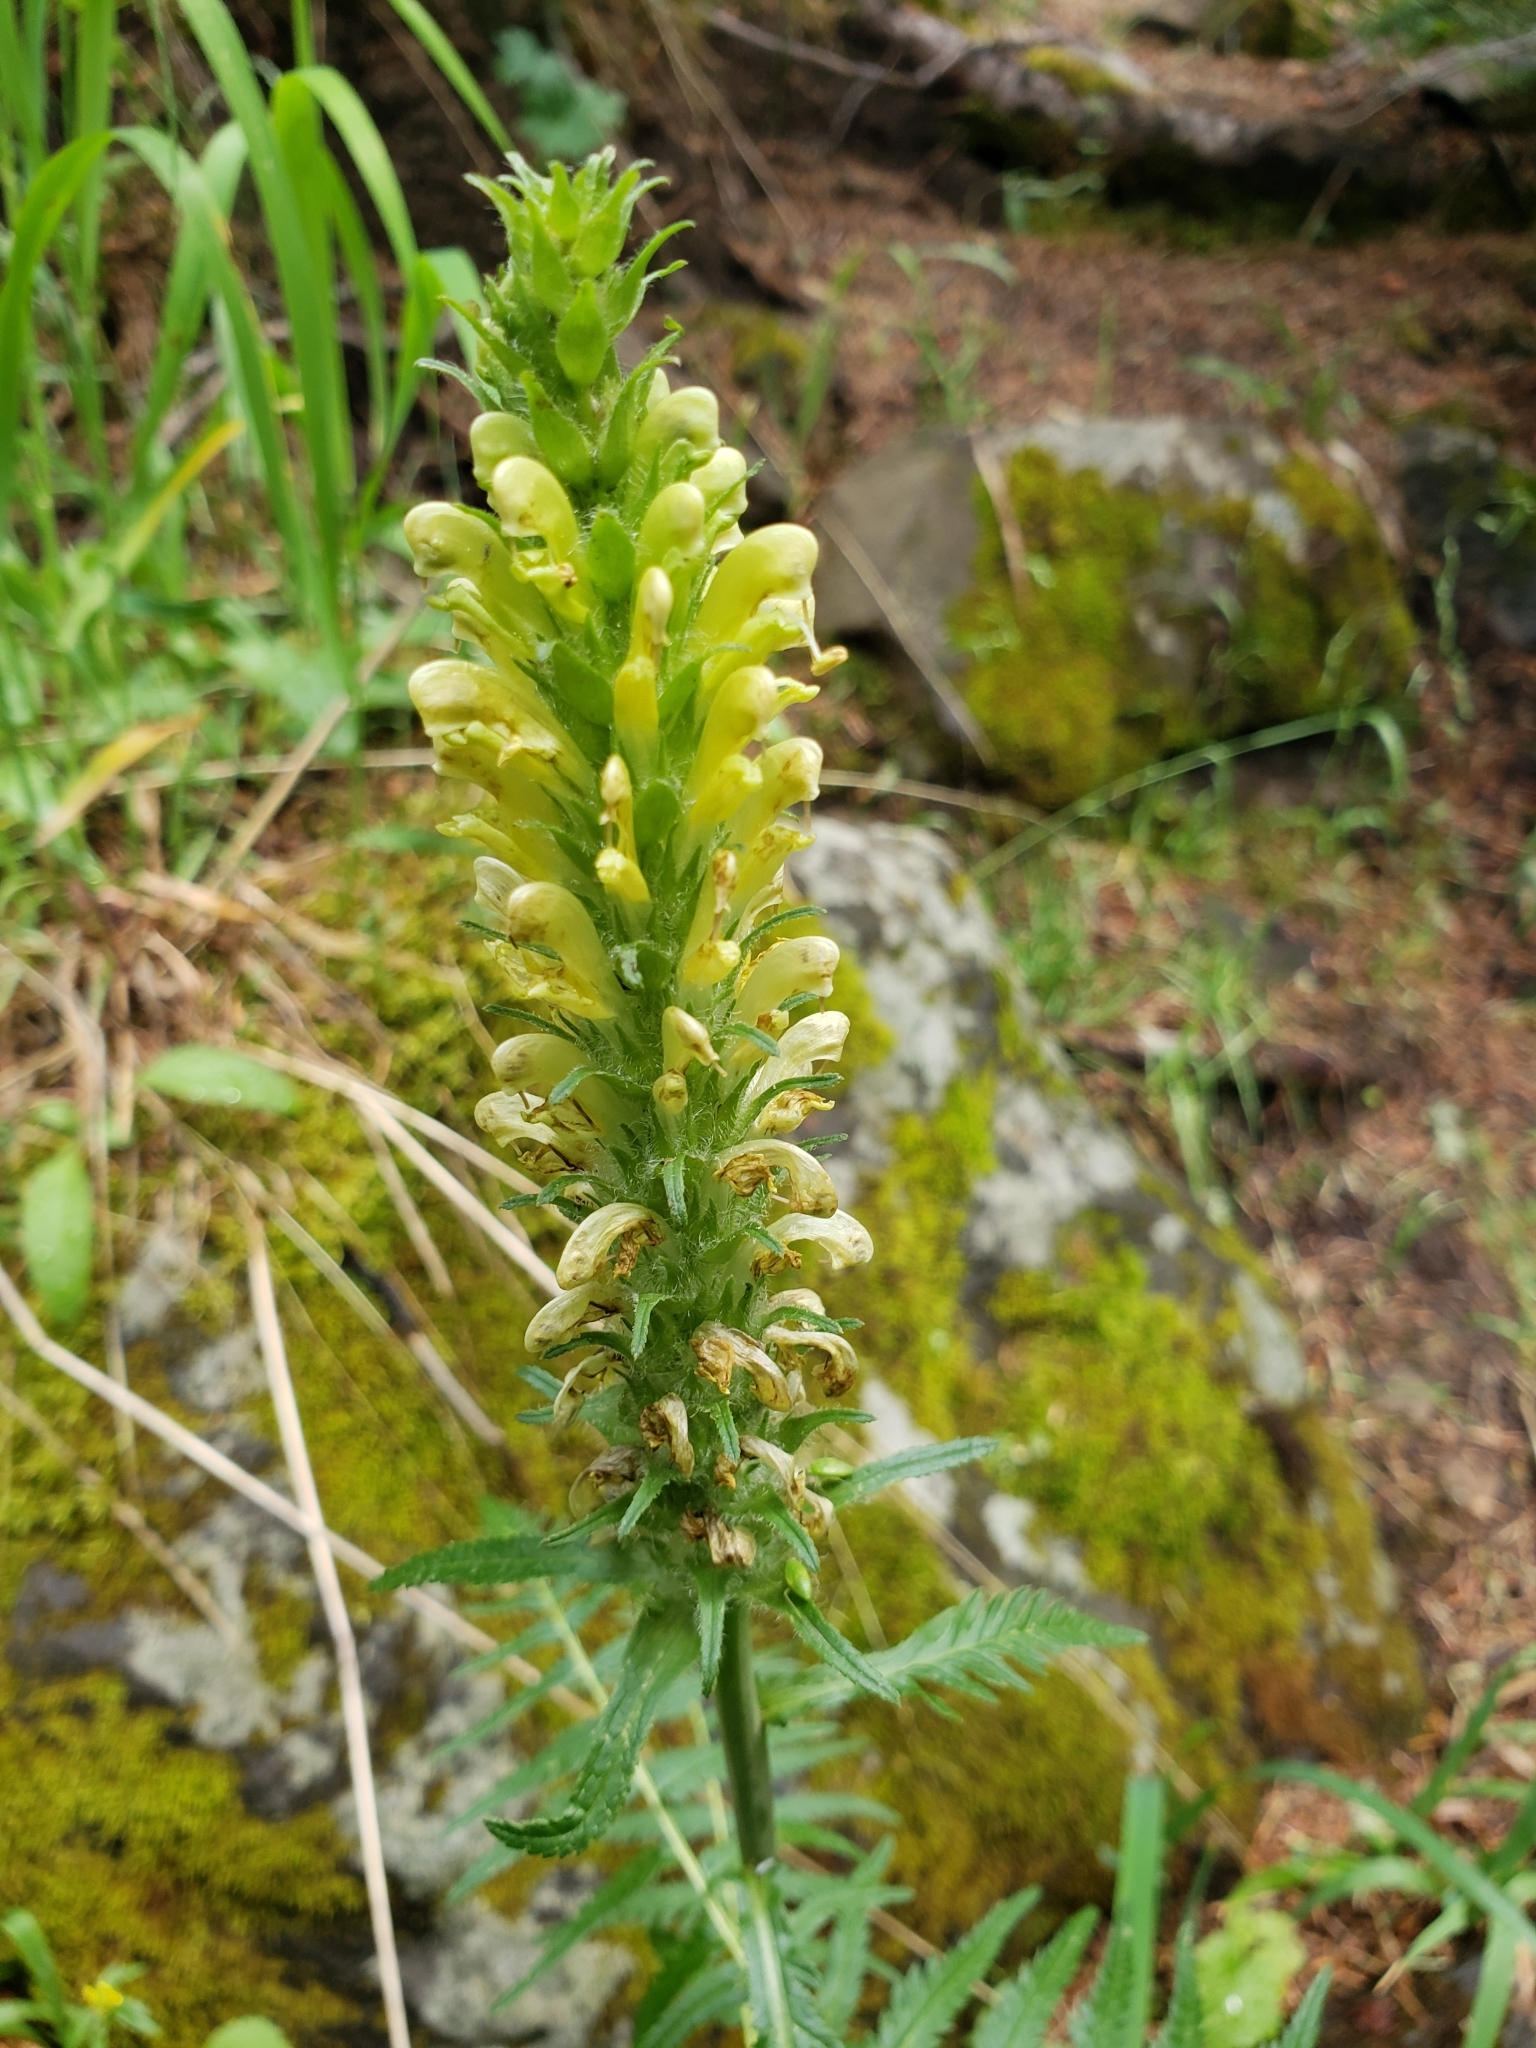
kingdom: Plantae
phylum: Tracheophyta
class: Magnoliopsida
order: Lamiales
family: Orobanchaceae
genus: Pedicularis
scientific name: Pedicularis bracteosa
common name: Bracted lousewort
